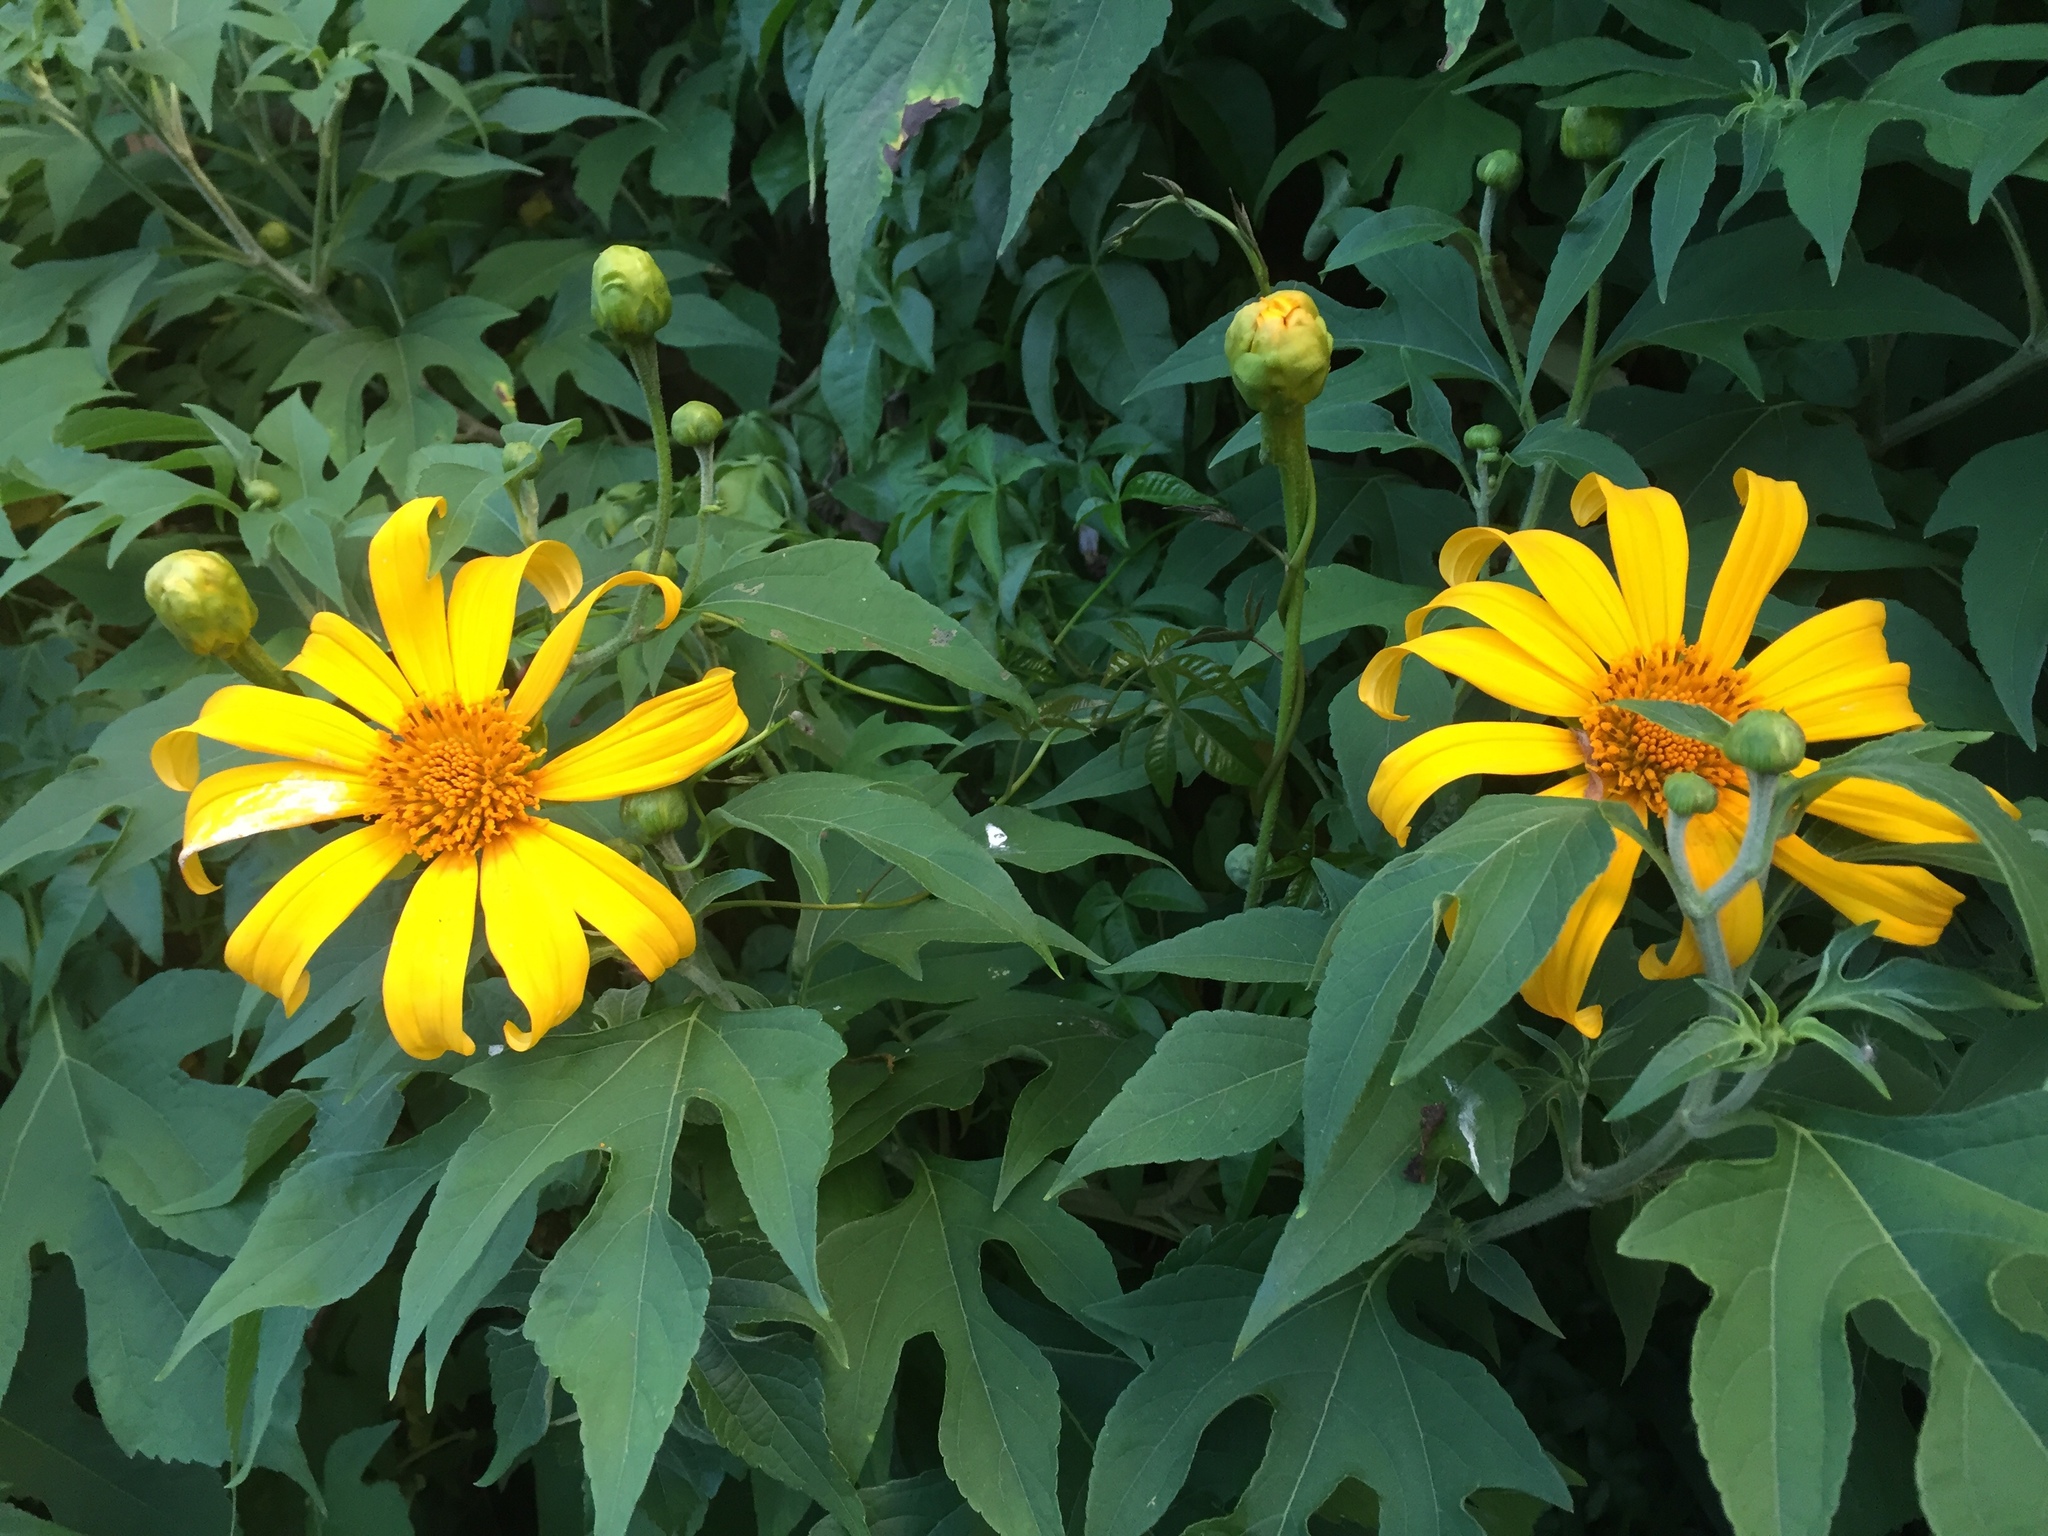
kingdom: Plantae
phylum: Tracheophyta
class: Magnoliopsida
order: Asterales
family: Asteraceae
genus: Tithonia
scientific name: Tithonia diversifolia
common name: Tree marigold
